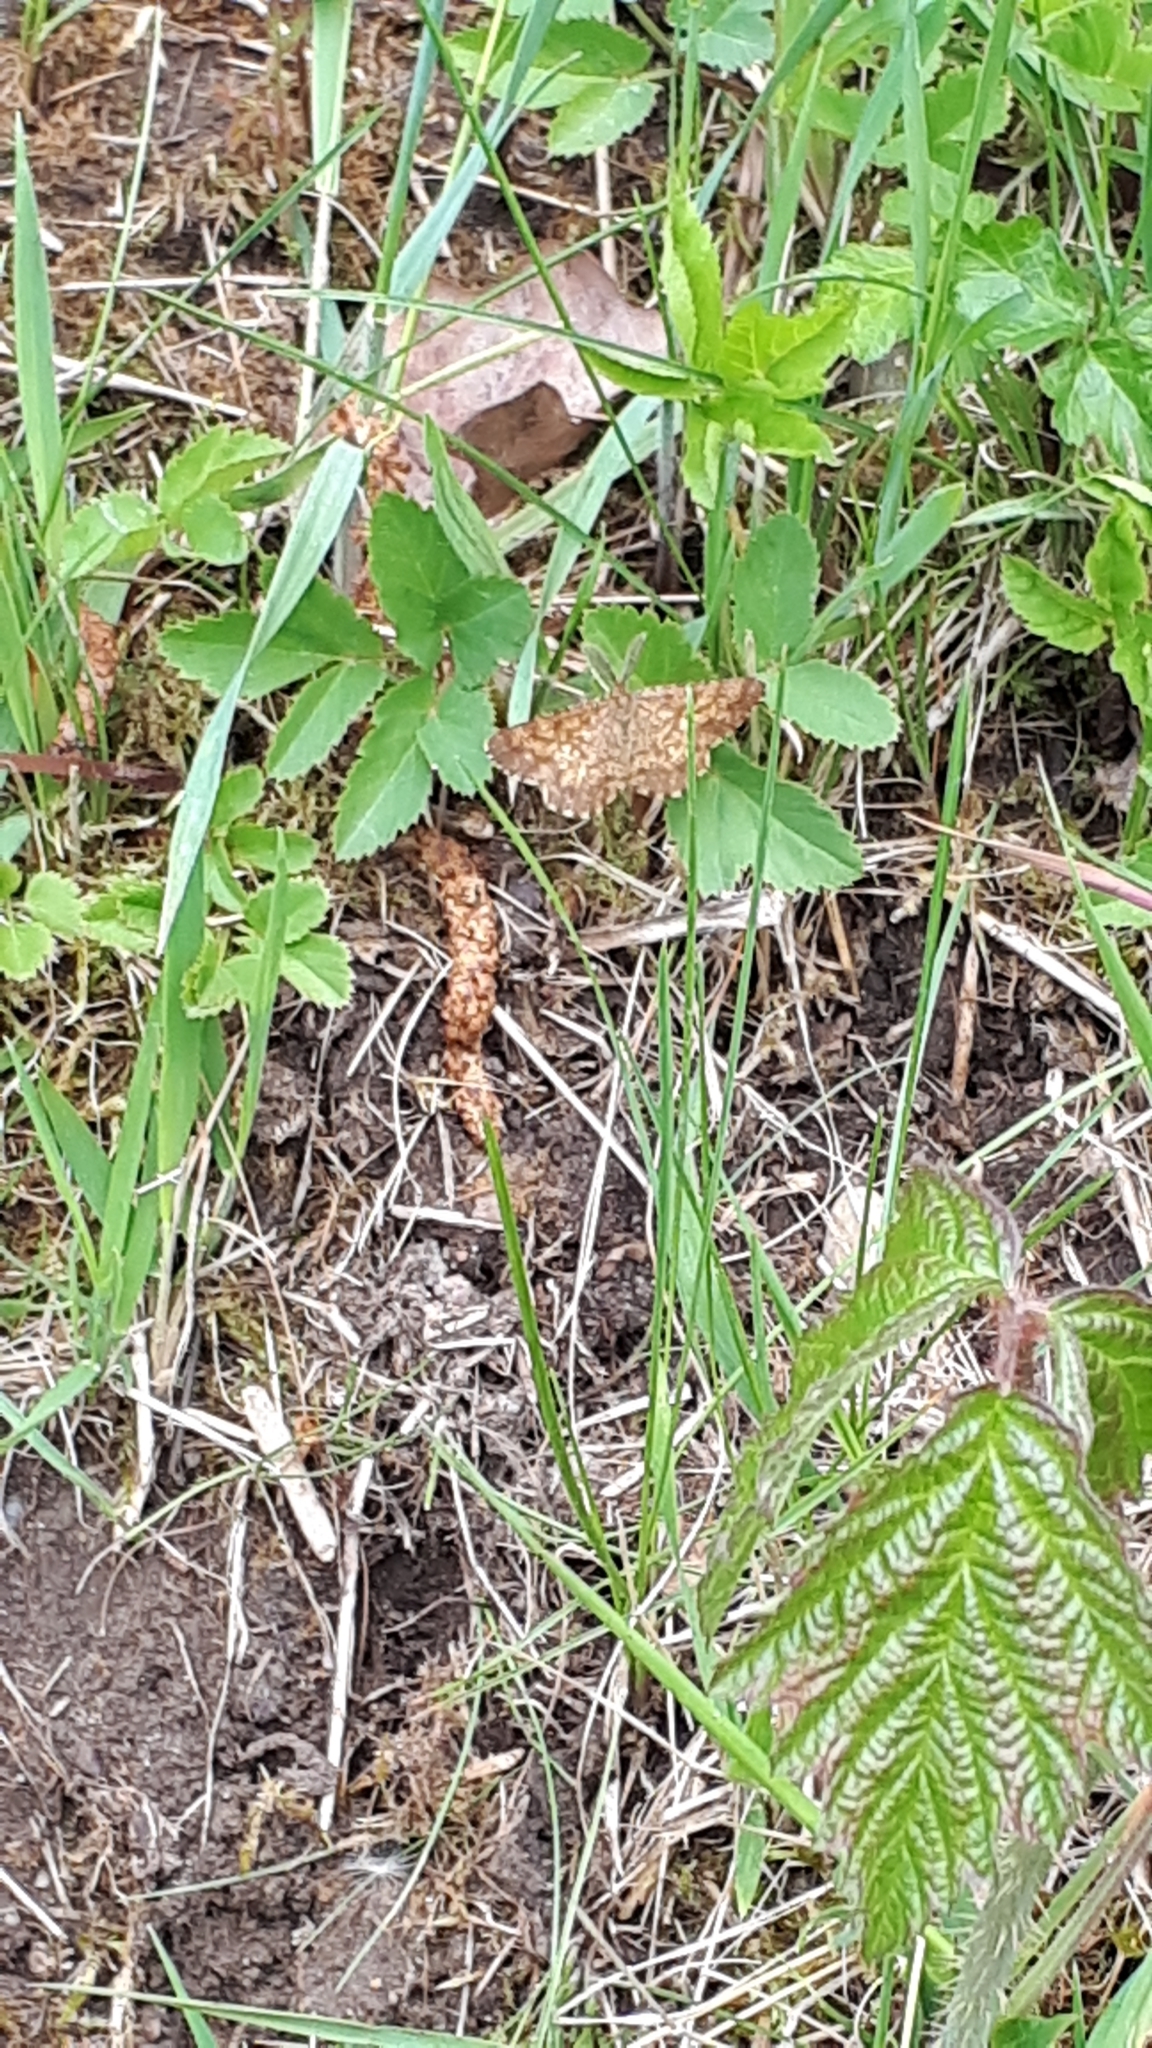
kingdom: Animalia
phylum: Arthropoda
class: Insecta
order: Lepidoptera
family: Geometridae
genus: Ematurga
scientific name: Ematurga atomaria
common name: Common heath
